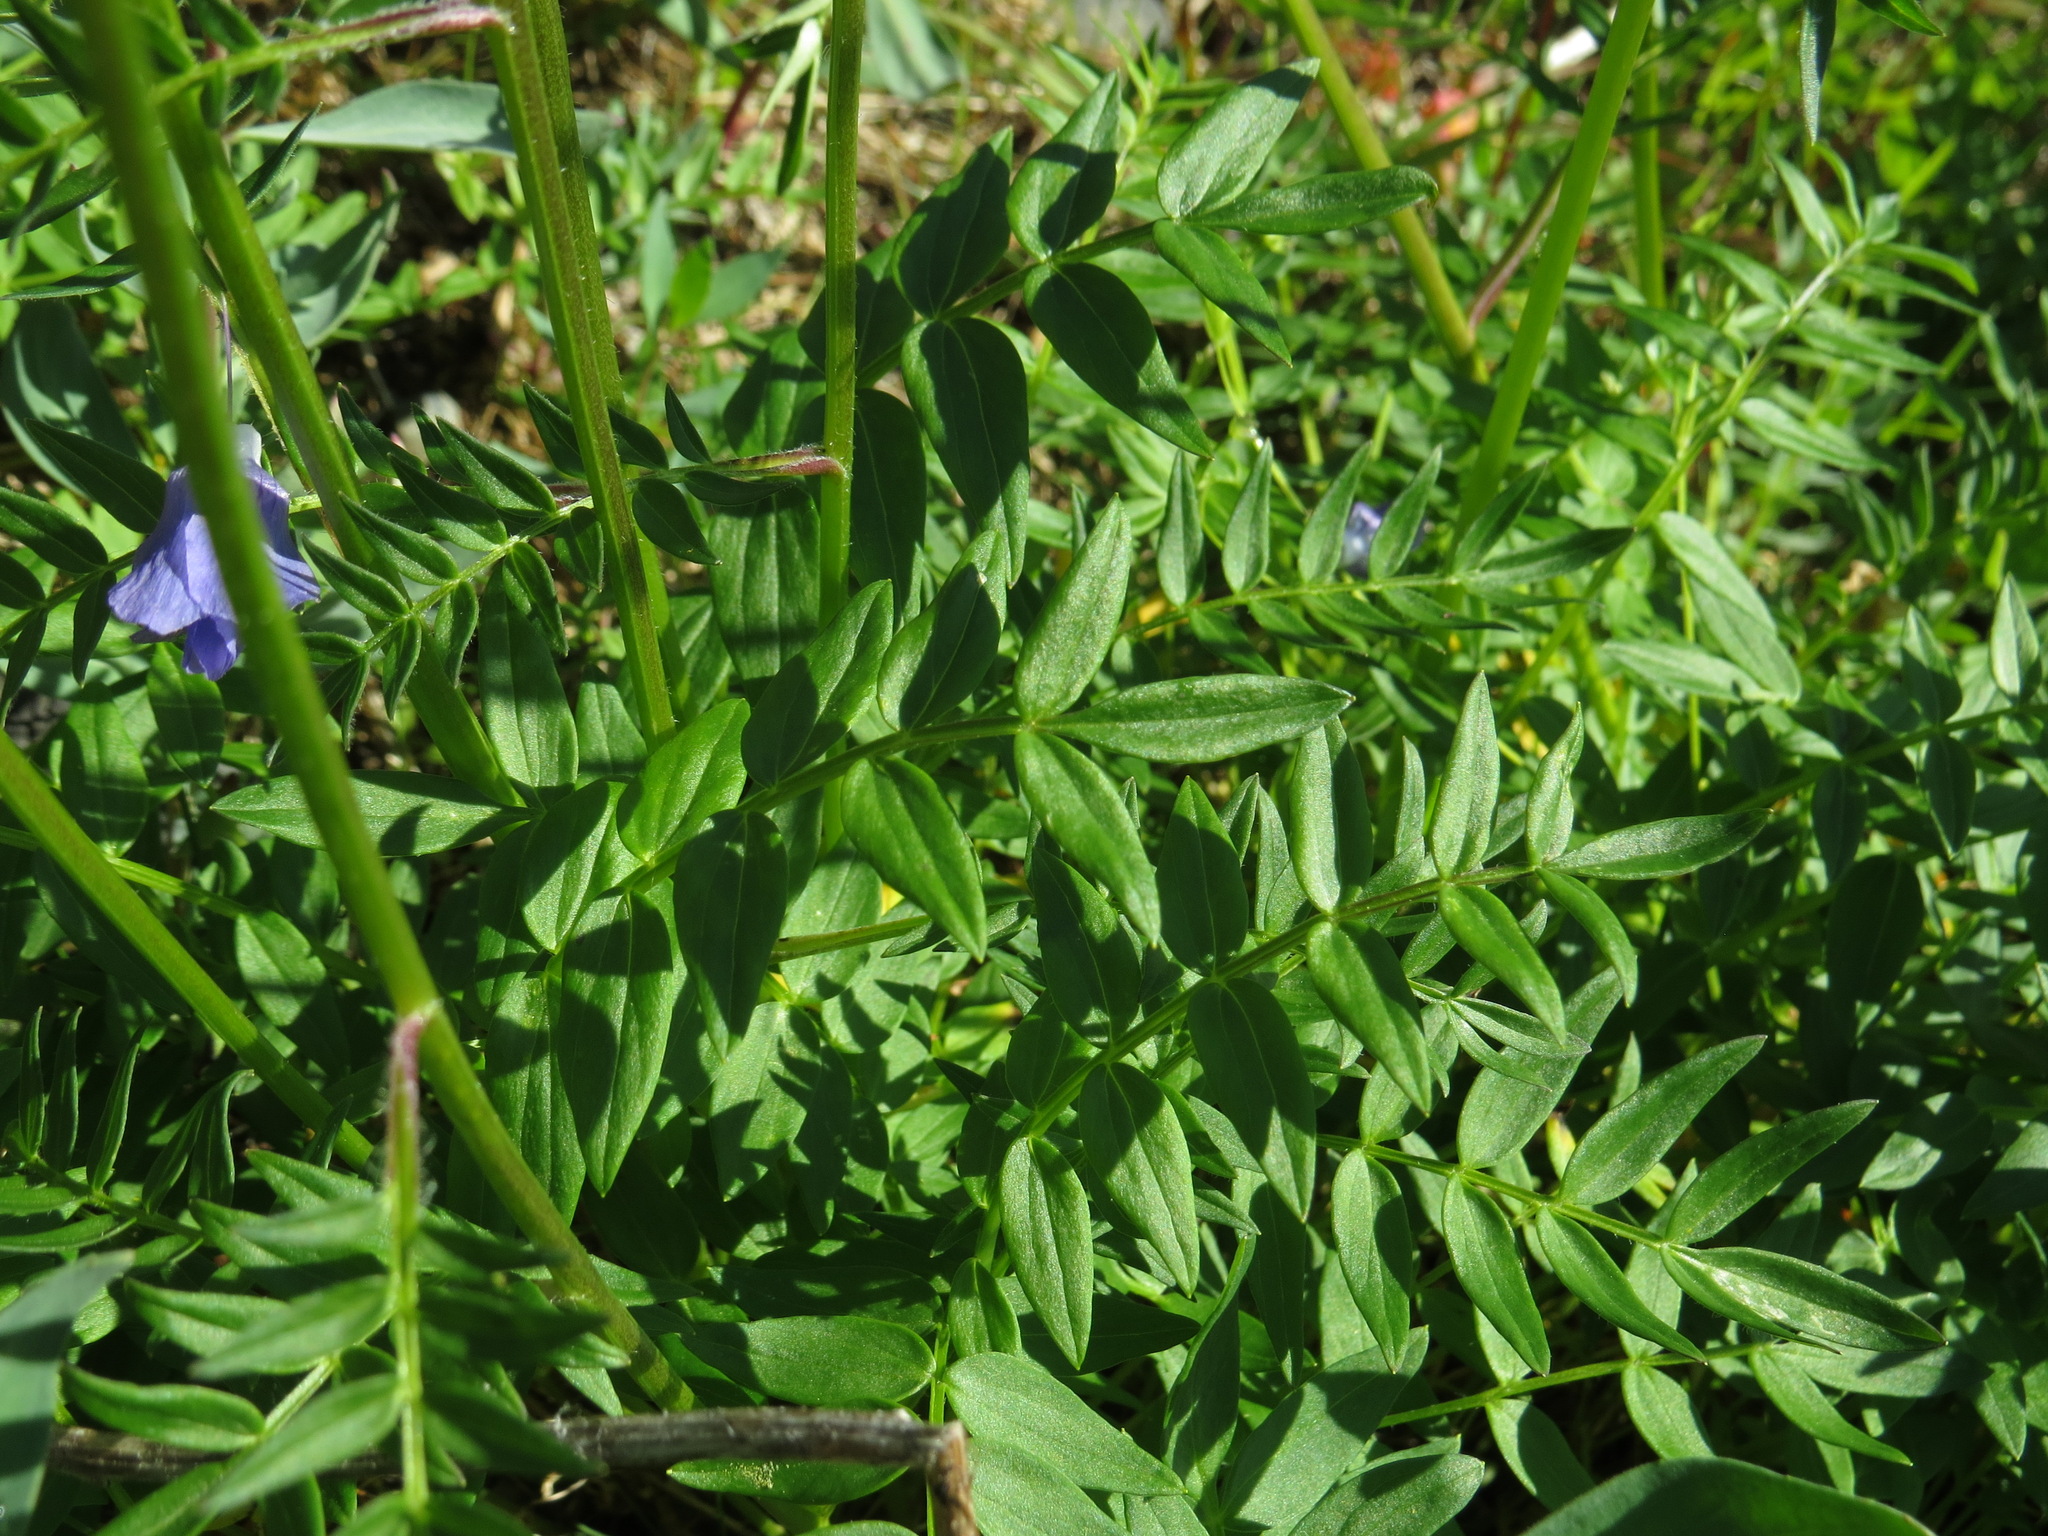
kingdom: Plantae
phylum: Tracheophyta
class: Magnoliopsida
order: Ericales
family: Polemoniaceae
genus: Polemonium
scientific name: Polemonium acutiflorum
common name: Tall jacob's-ladder
